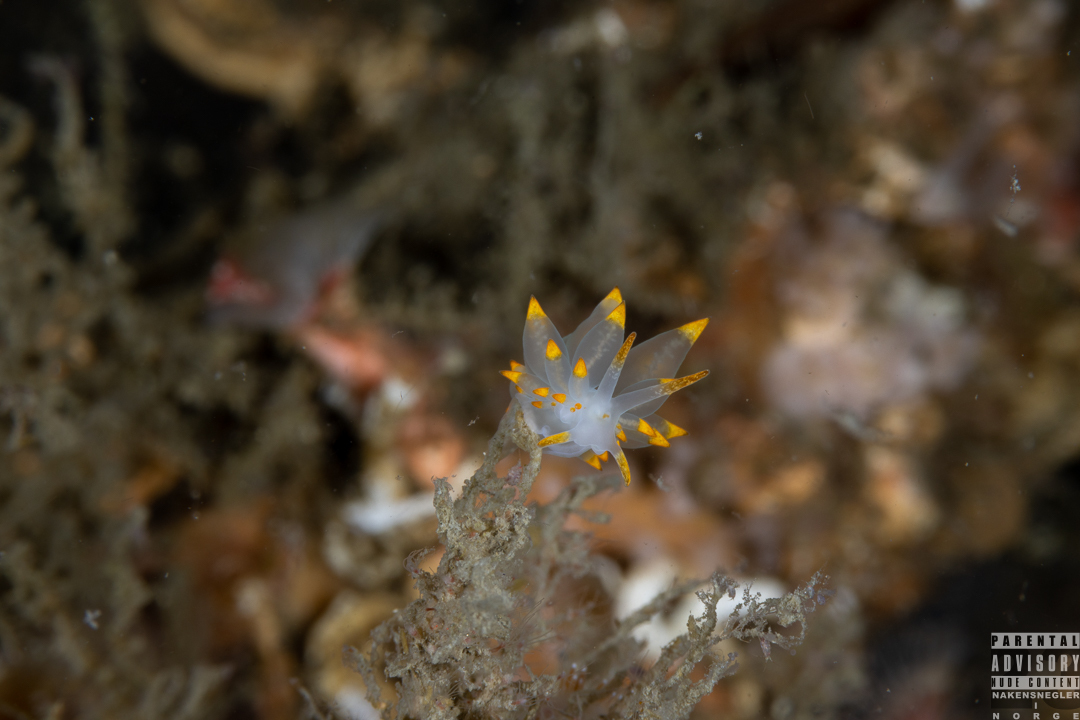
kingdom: Animalia
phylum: Mollusca
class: Gastropoda
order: Nudibranchia
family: Eubranchidae
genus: Amphorina
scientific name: Amphorina farrani
